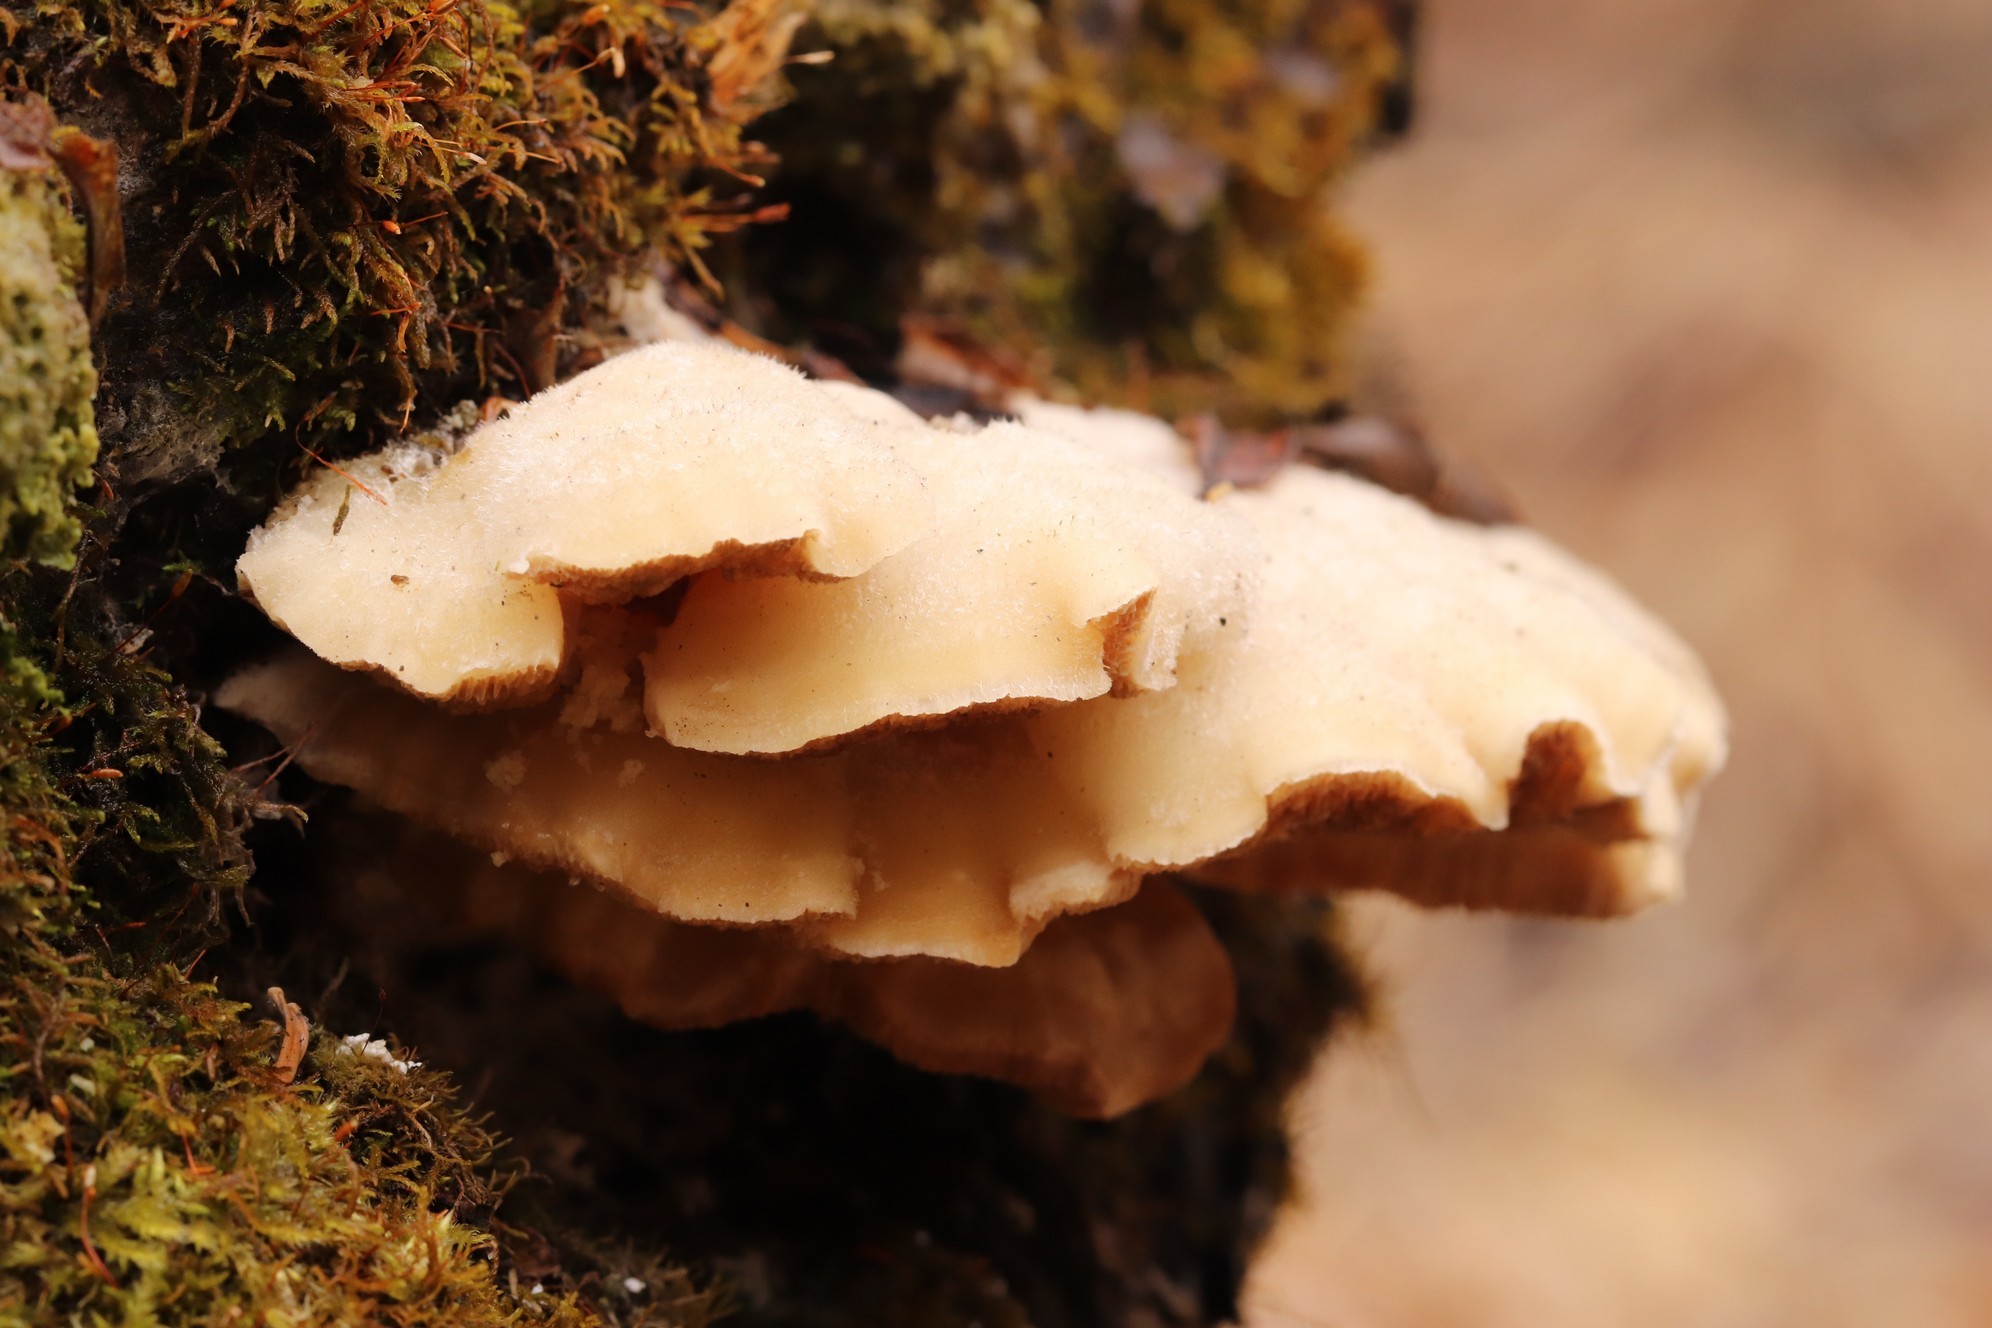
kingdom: Fungi
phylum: Basidiomycota
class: Agaricomycetes
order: Polyporales
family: Polyporaceae
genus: Trametes
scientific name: Trametes suaveolens
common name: Fragrant bracket
